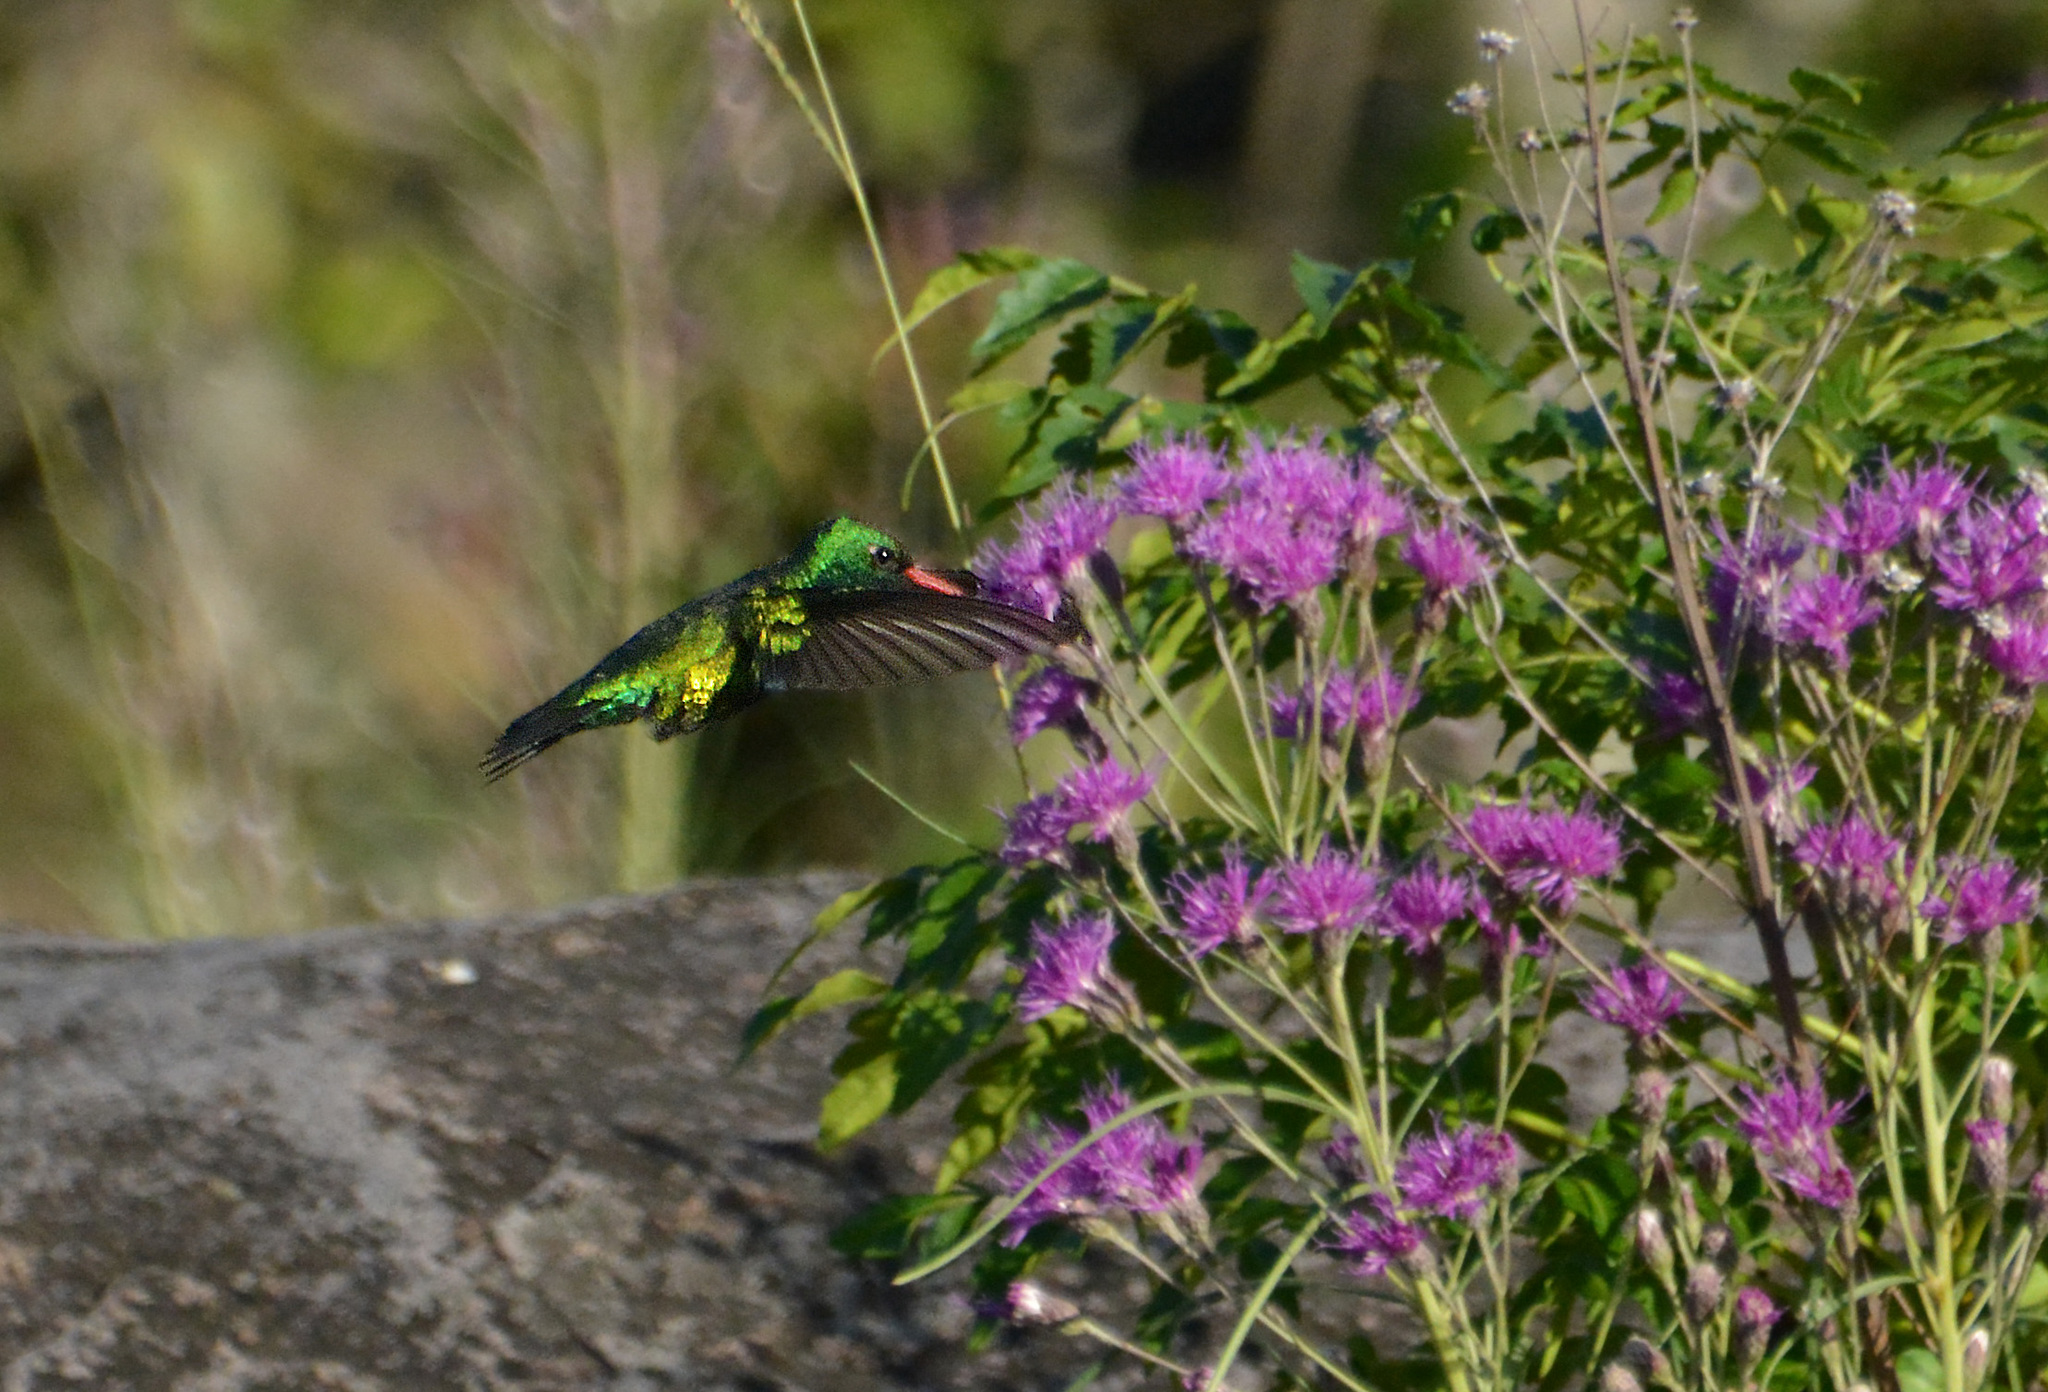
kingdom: Animalia
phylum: Chordata
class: Aves
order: Apodiformes
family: Trochilidae
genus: Chlorostilbon
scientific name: Chlorostilbon lucidus
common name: Glittering-bellied emerald
